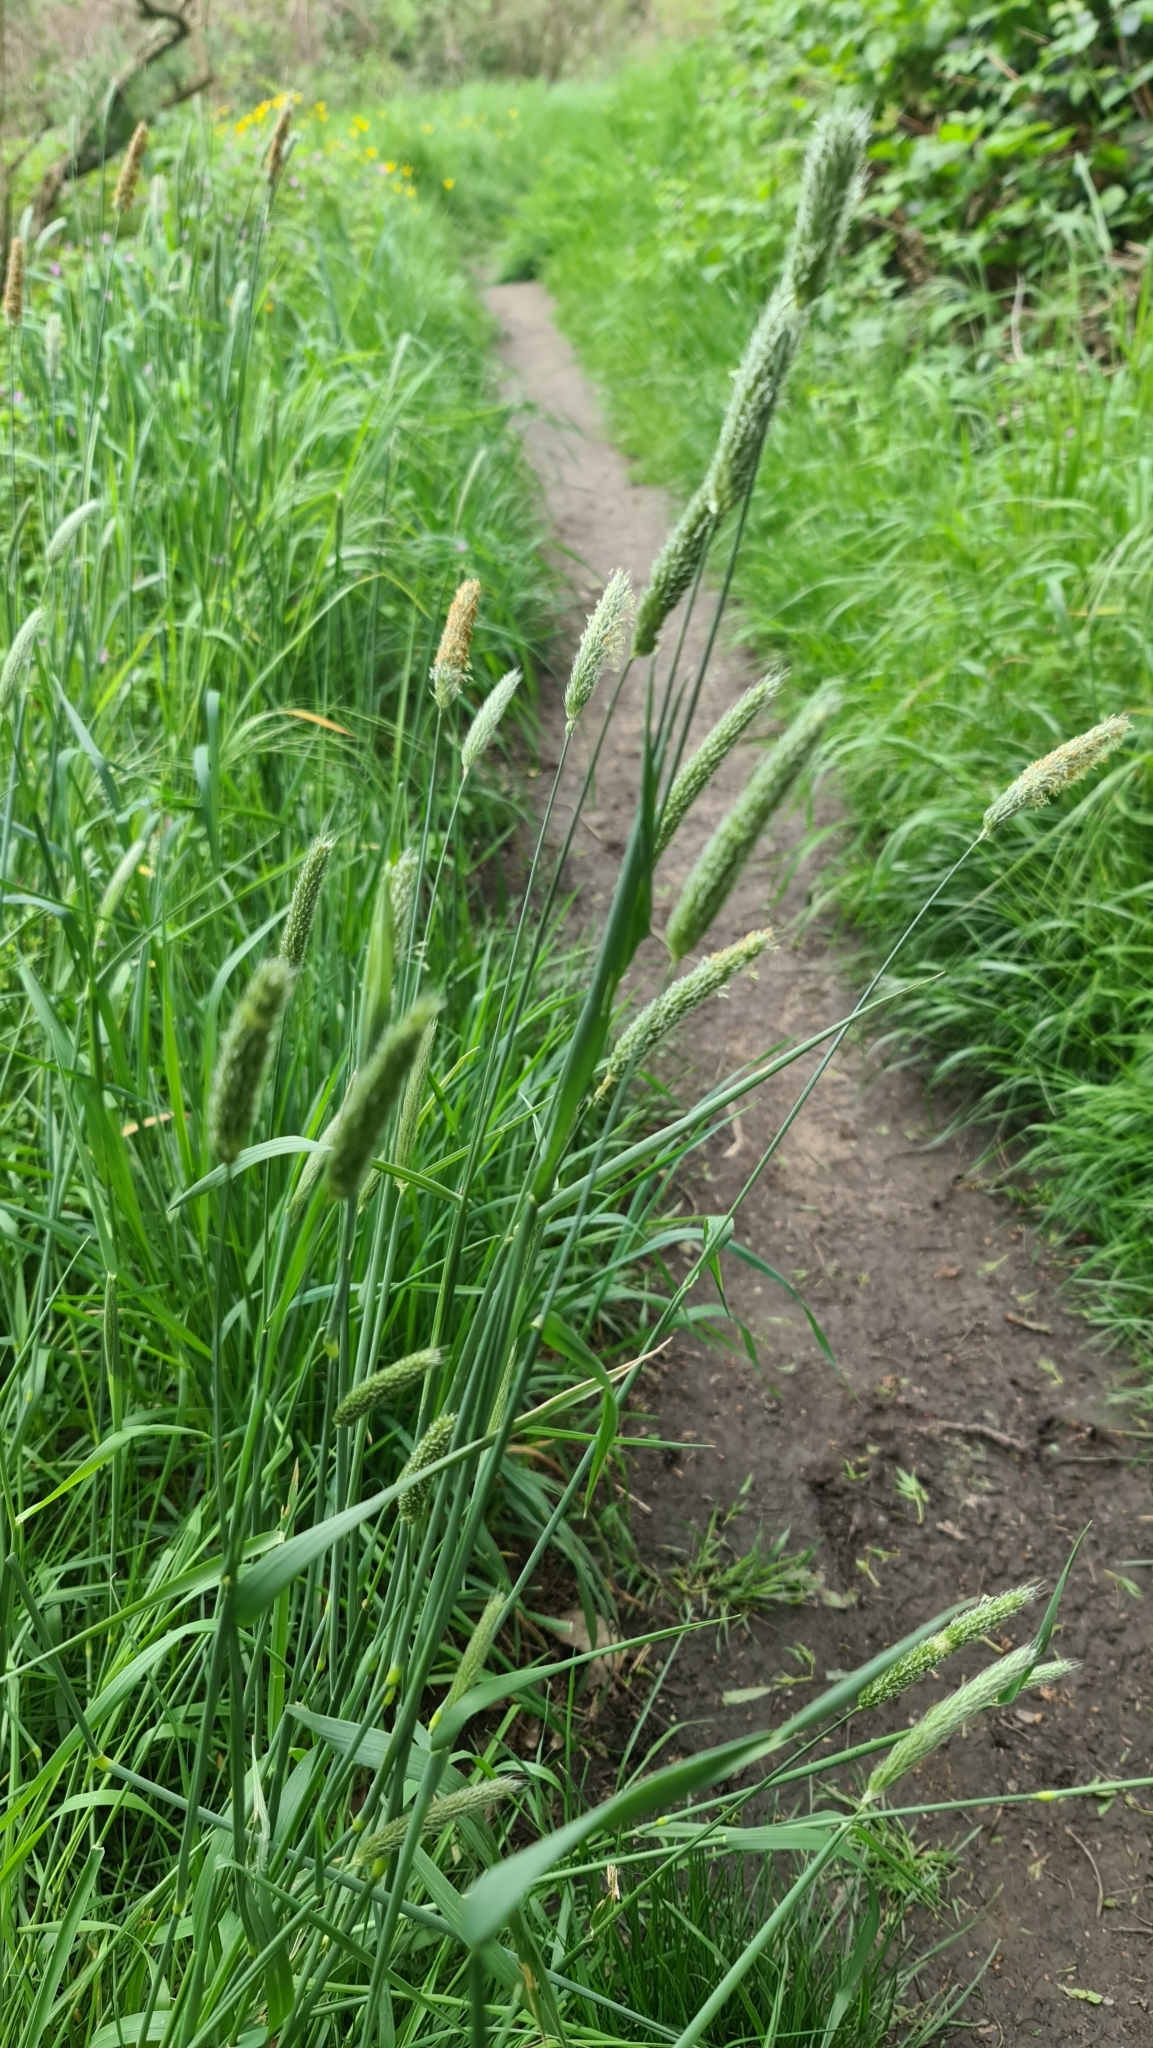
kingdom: Plantae
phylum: Tracheophyta
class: Liliopsida
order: Poales
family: Poaceae
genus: Alopecurus
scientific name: Alopecurus pratensis
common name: Meadow foxtail
